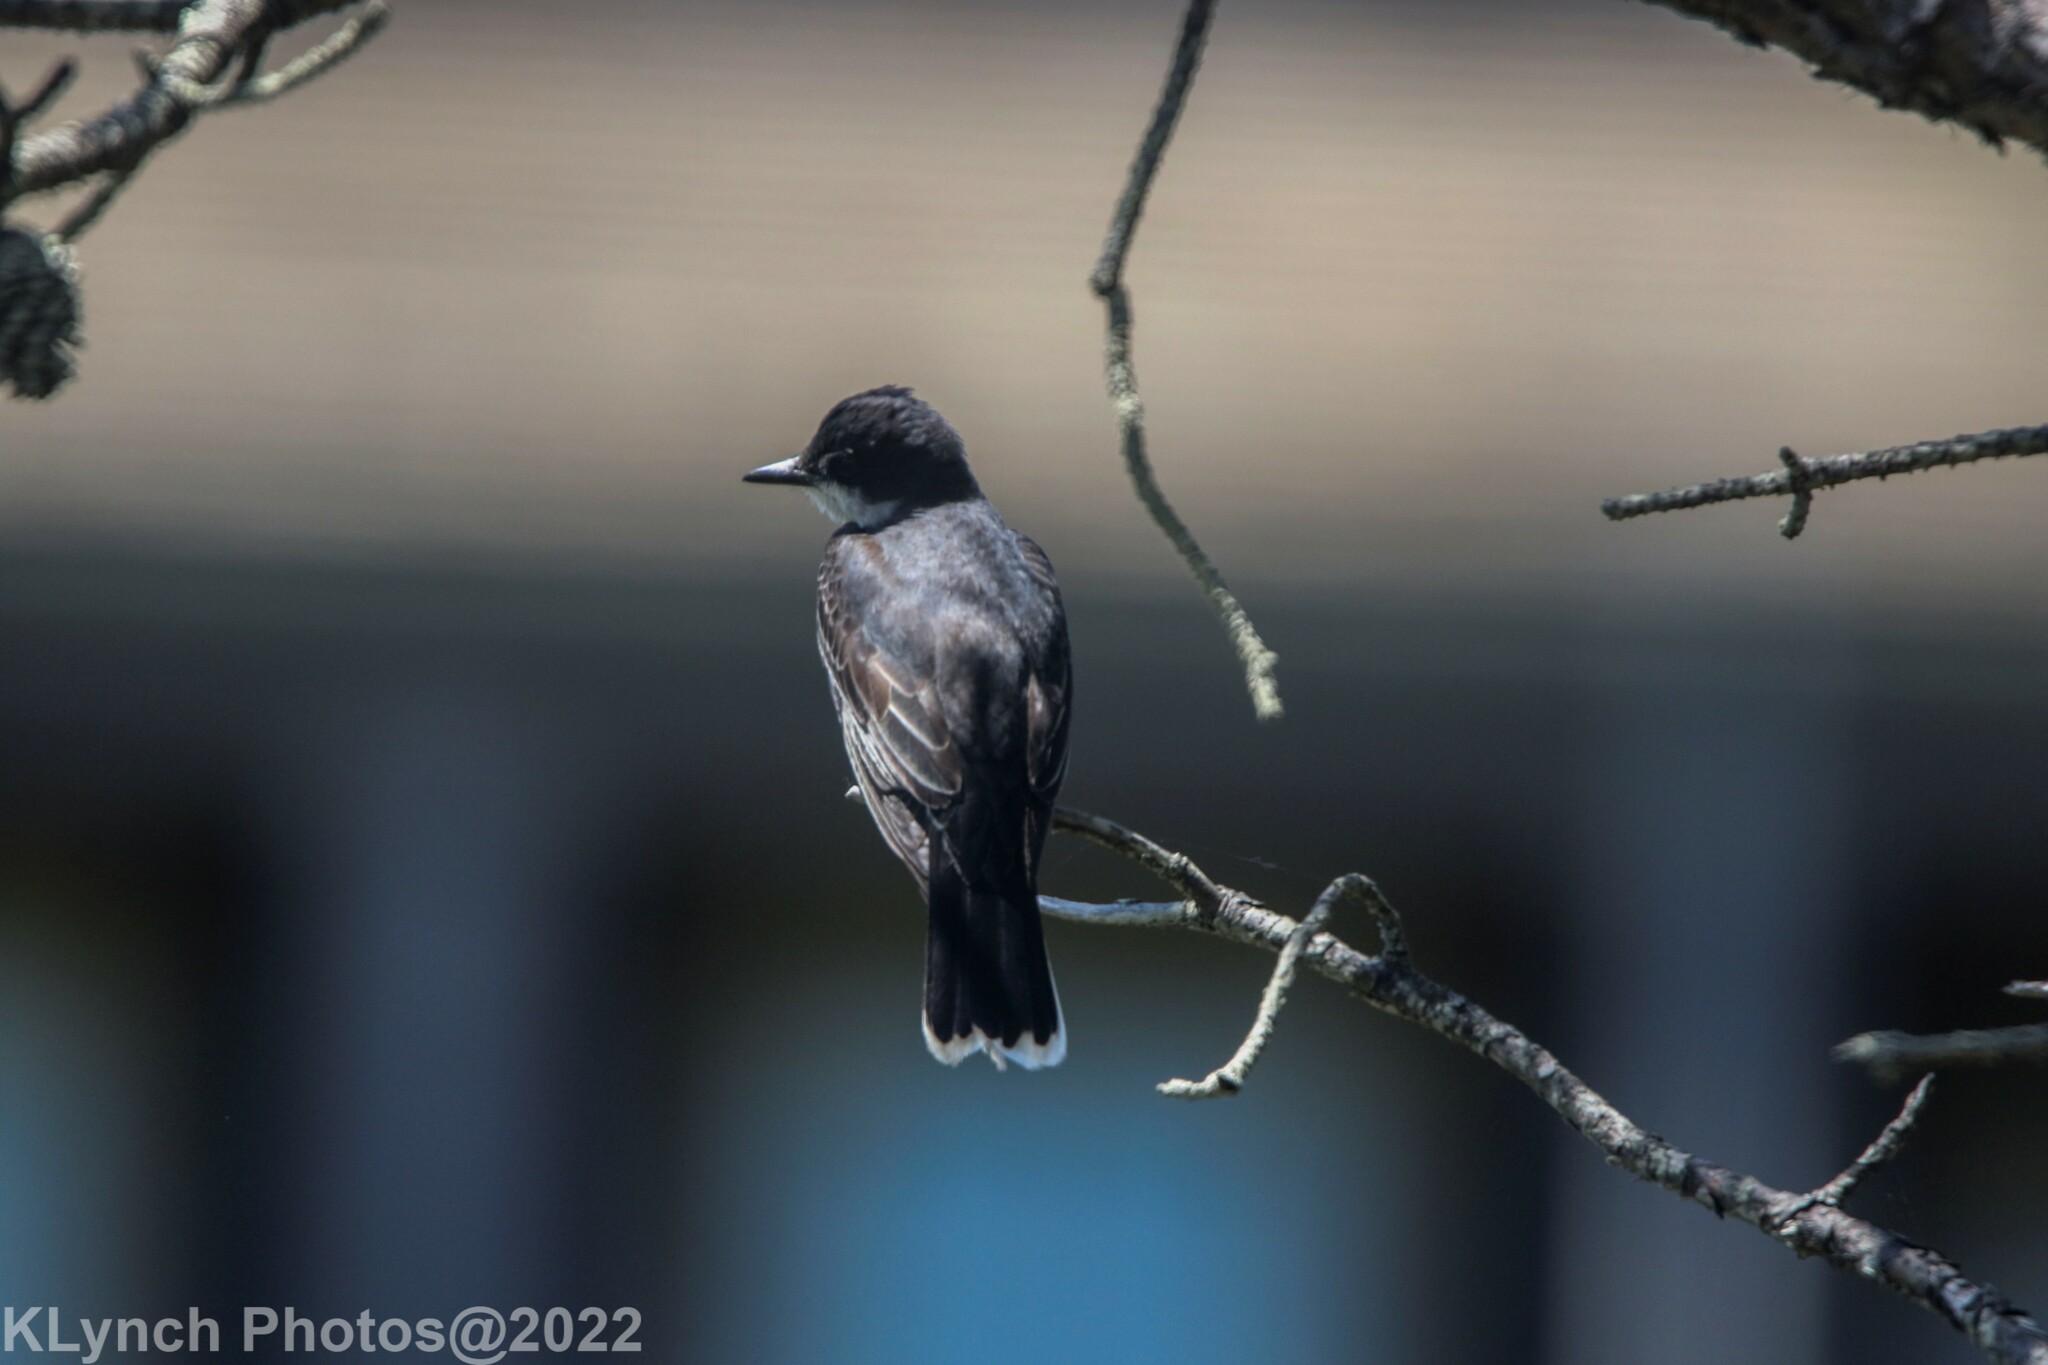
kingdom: Animalia
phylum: Chordata
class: Aves
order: Passeriformes
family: Tyrannidae
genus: Tyrannus
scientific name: Tyrannus tyrannus
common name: Eastern kingbird
